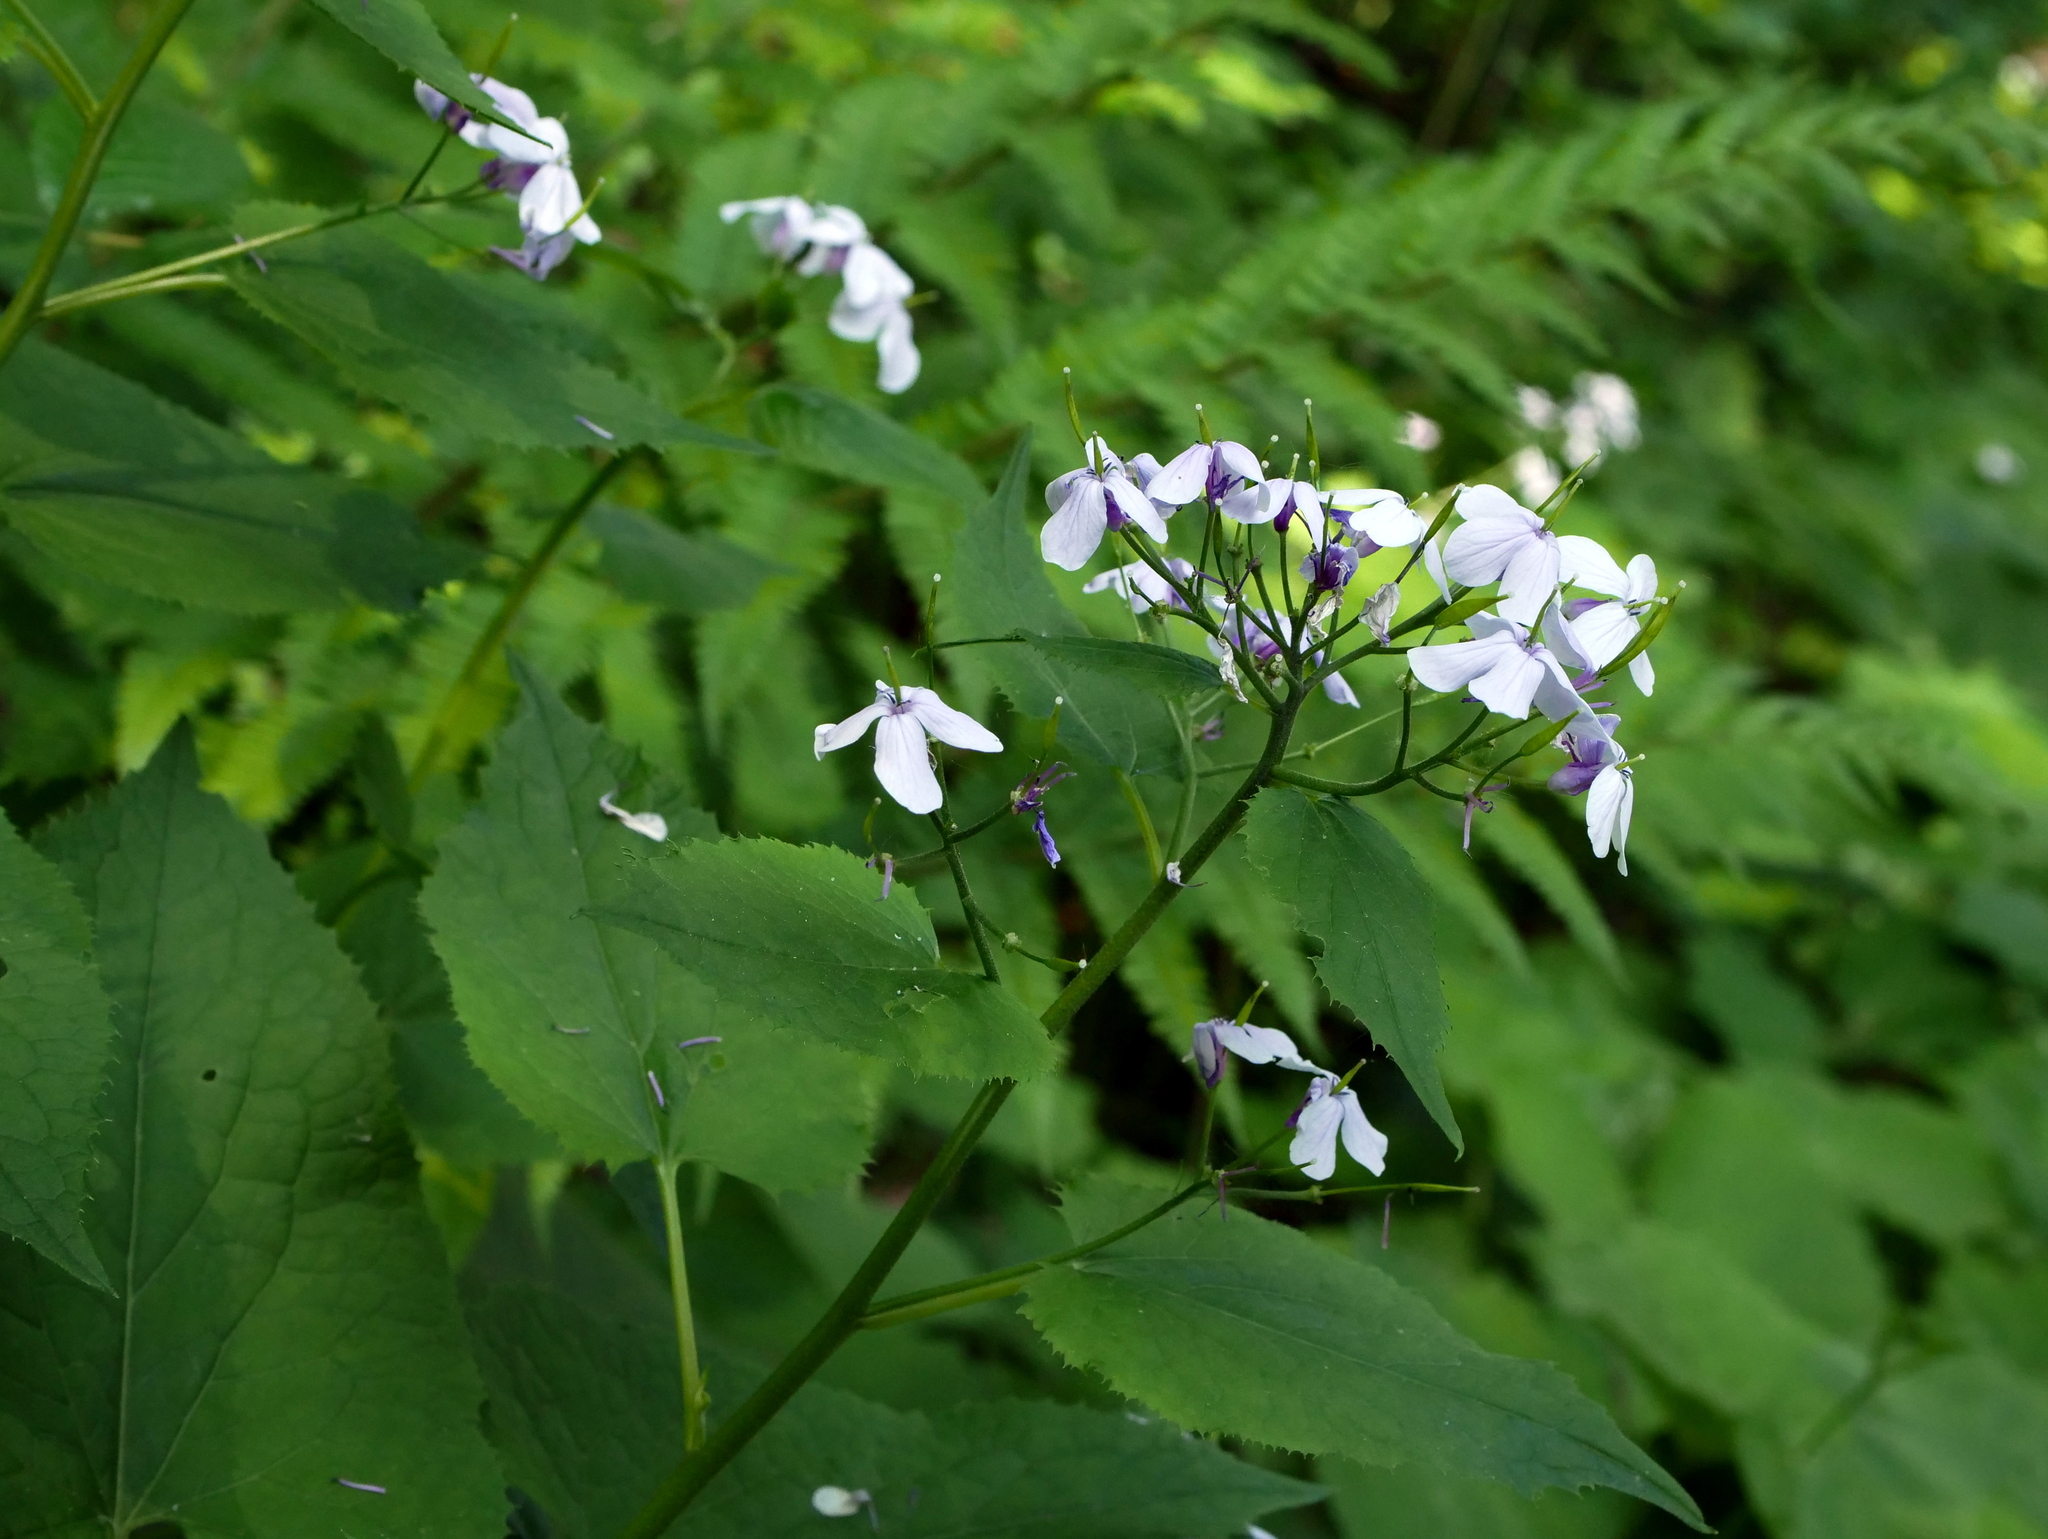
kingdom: Plantae
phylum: Tracheophyta
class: Magnoliopsida
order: Brassicales
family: Brassicaceae
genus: Lunaria
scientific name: Lunaria rediviva
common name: Perennial honesty
